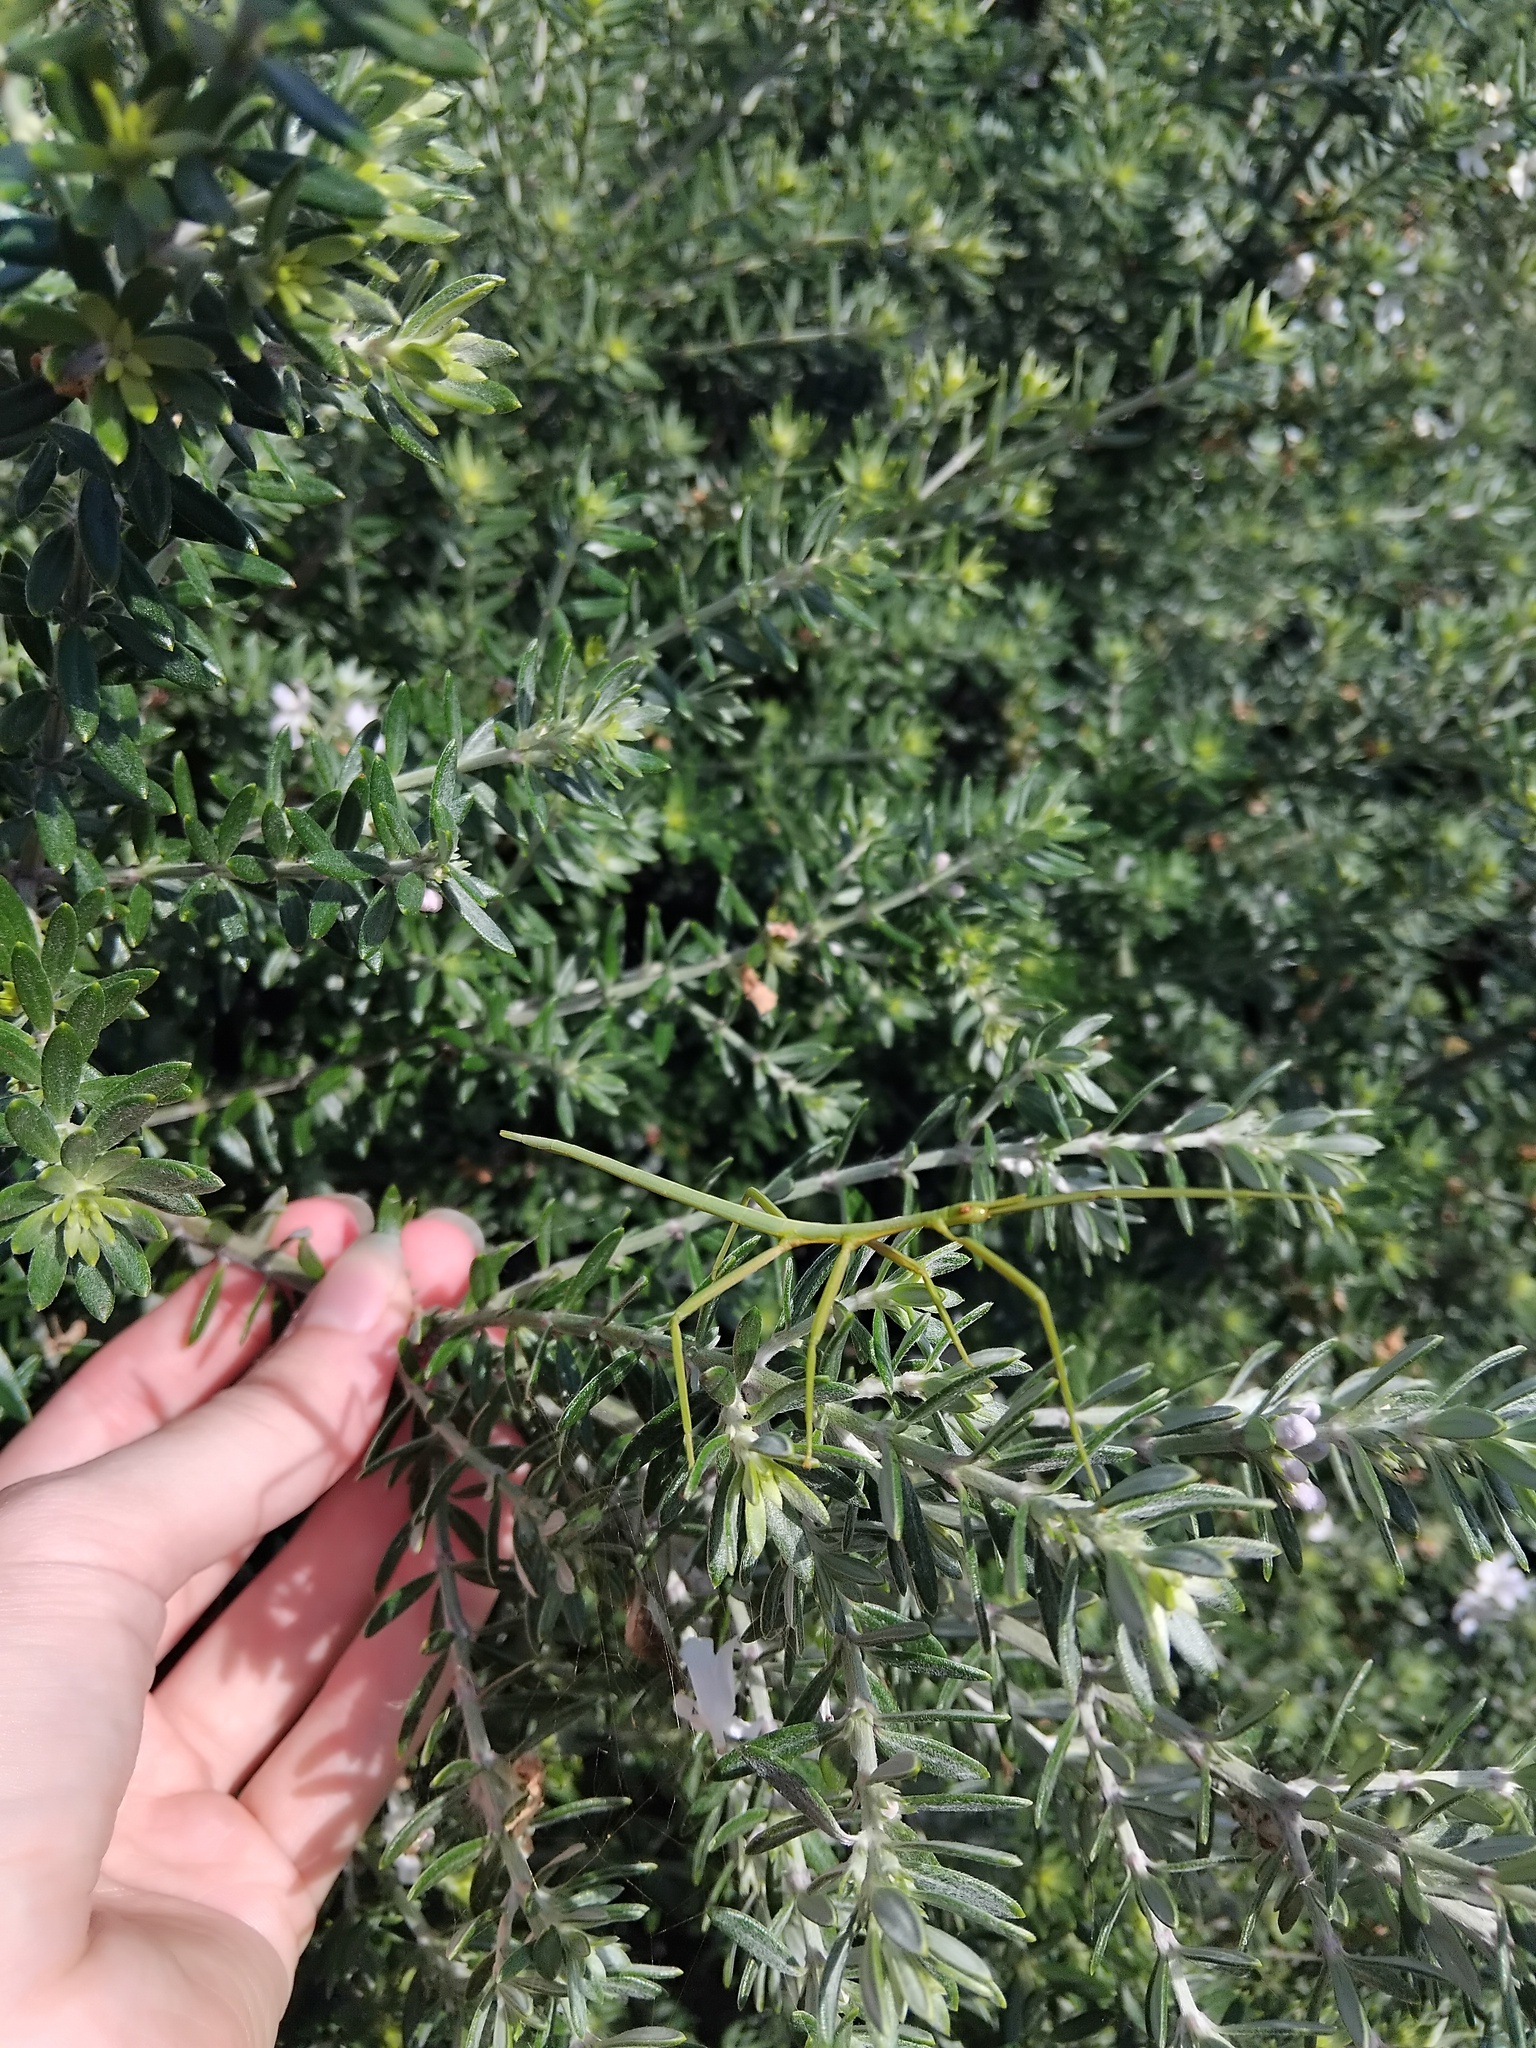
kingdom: Animalia
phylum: Arthropoda
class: Insecta
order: Phasmida
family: Phasmatidae
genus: Didymuria
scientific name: Didymuria violescens
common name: Spur-legged stick-insect
